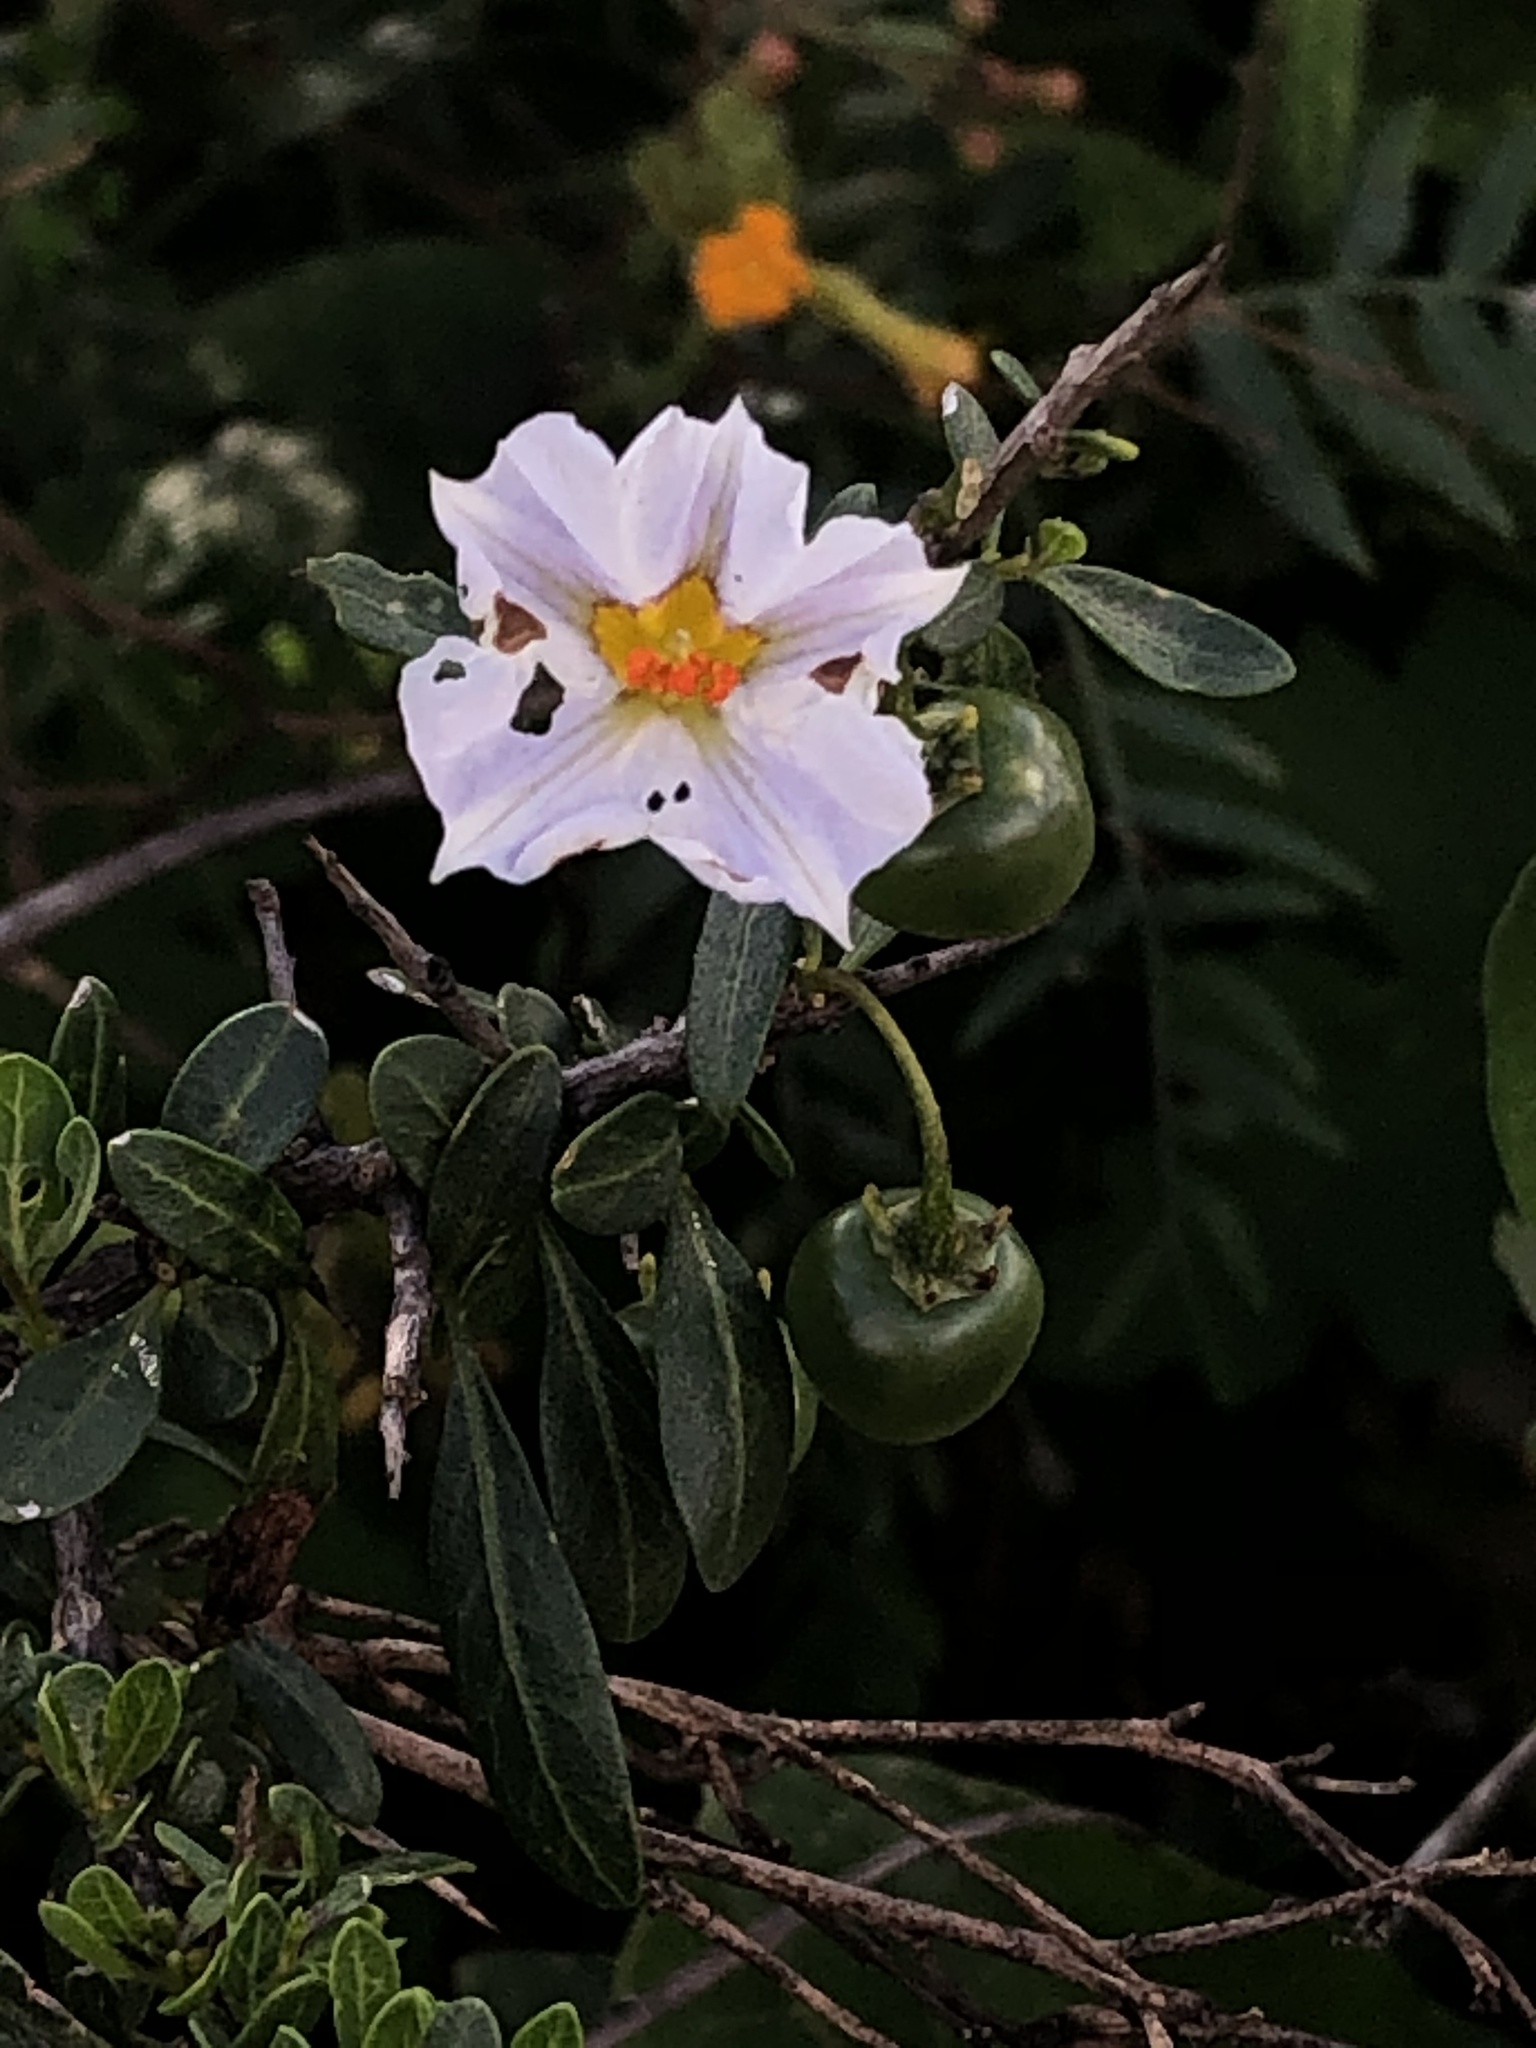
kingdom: Plantae
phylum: Tracheophyta
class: Magnoliopsida
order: Solanales
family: Solanaceae
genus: Lycianthes
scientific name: Lycianthes lycioides
